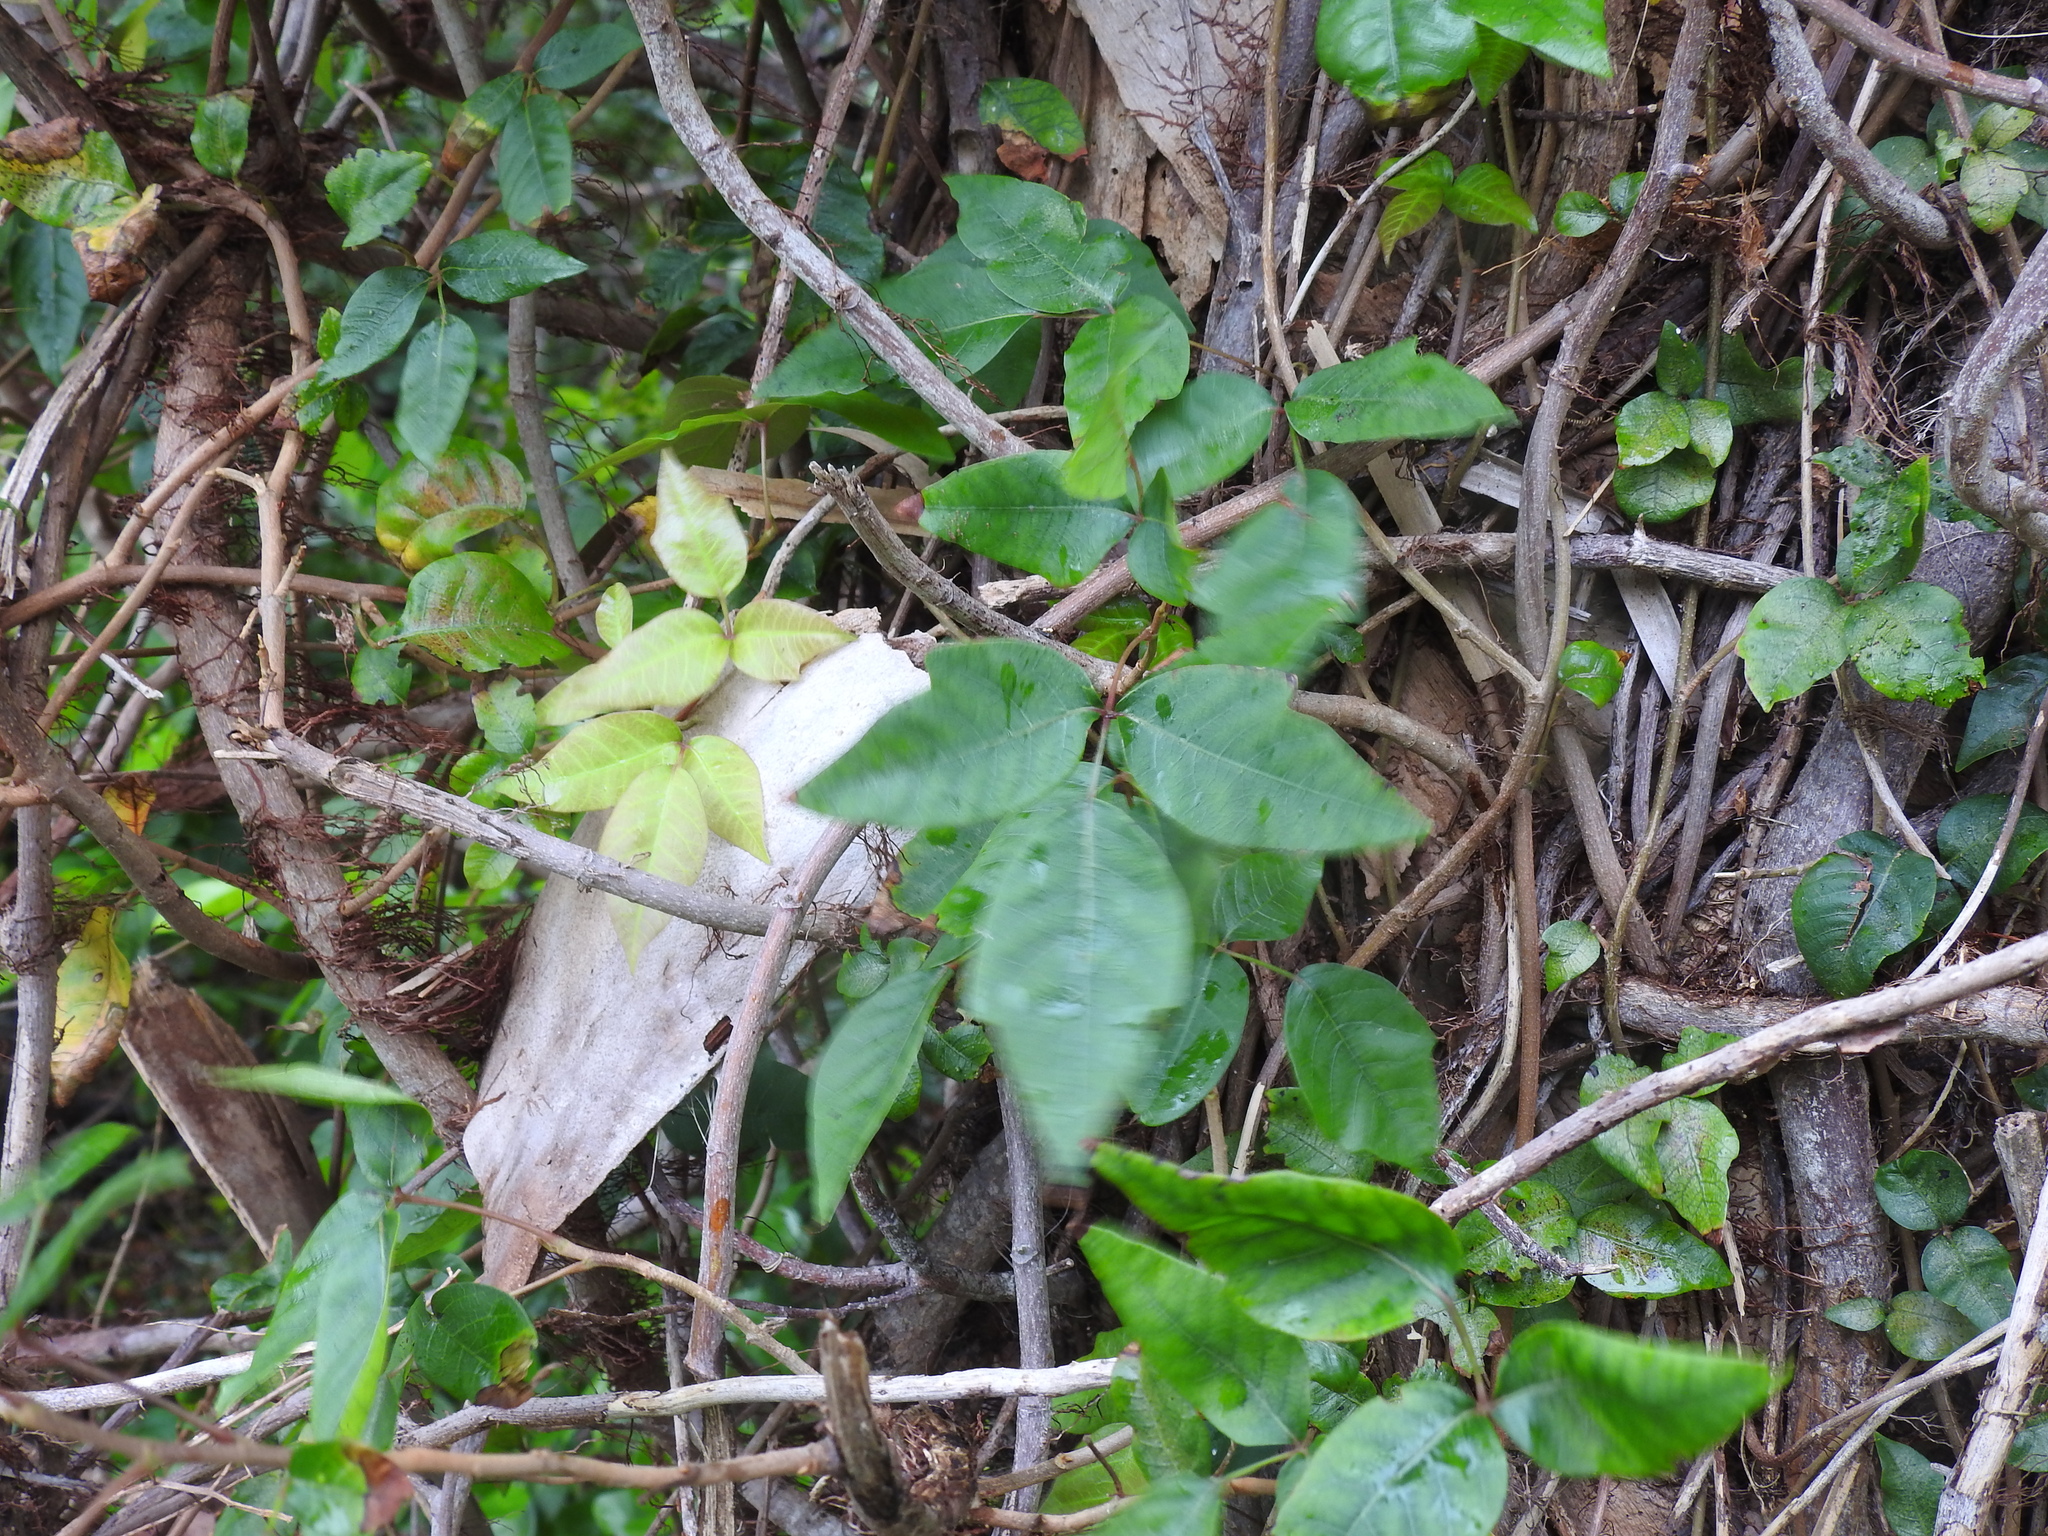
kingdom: Plantae
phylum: Tracheophyta
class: Magnoliopsida
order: Sapindales
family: Anacardiaceae
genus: Toxicodendron
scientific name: Toxicodendron radicans
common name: Poison ivy
